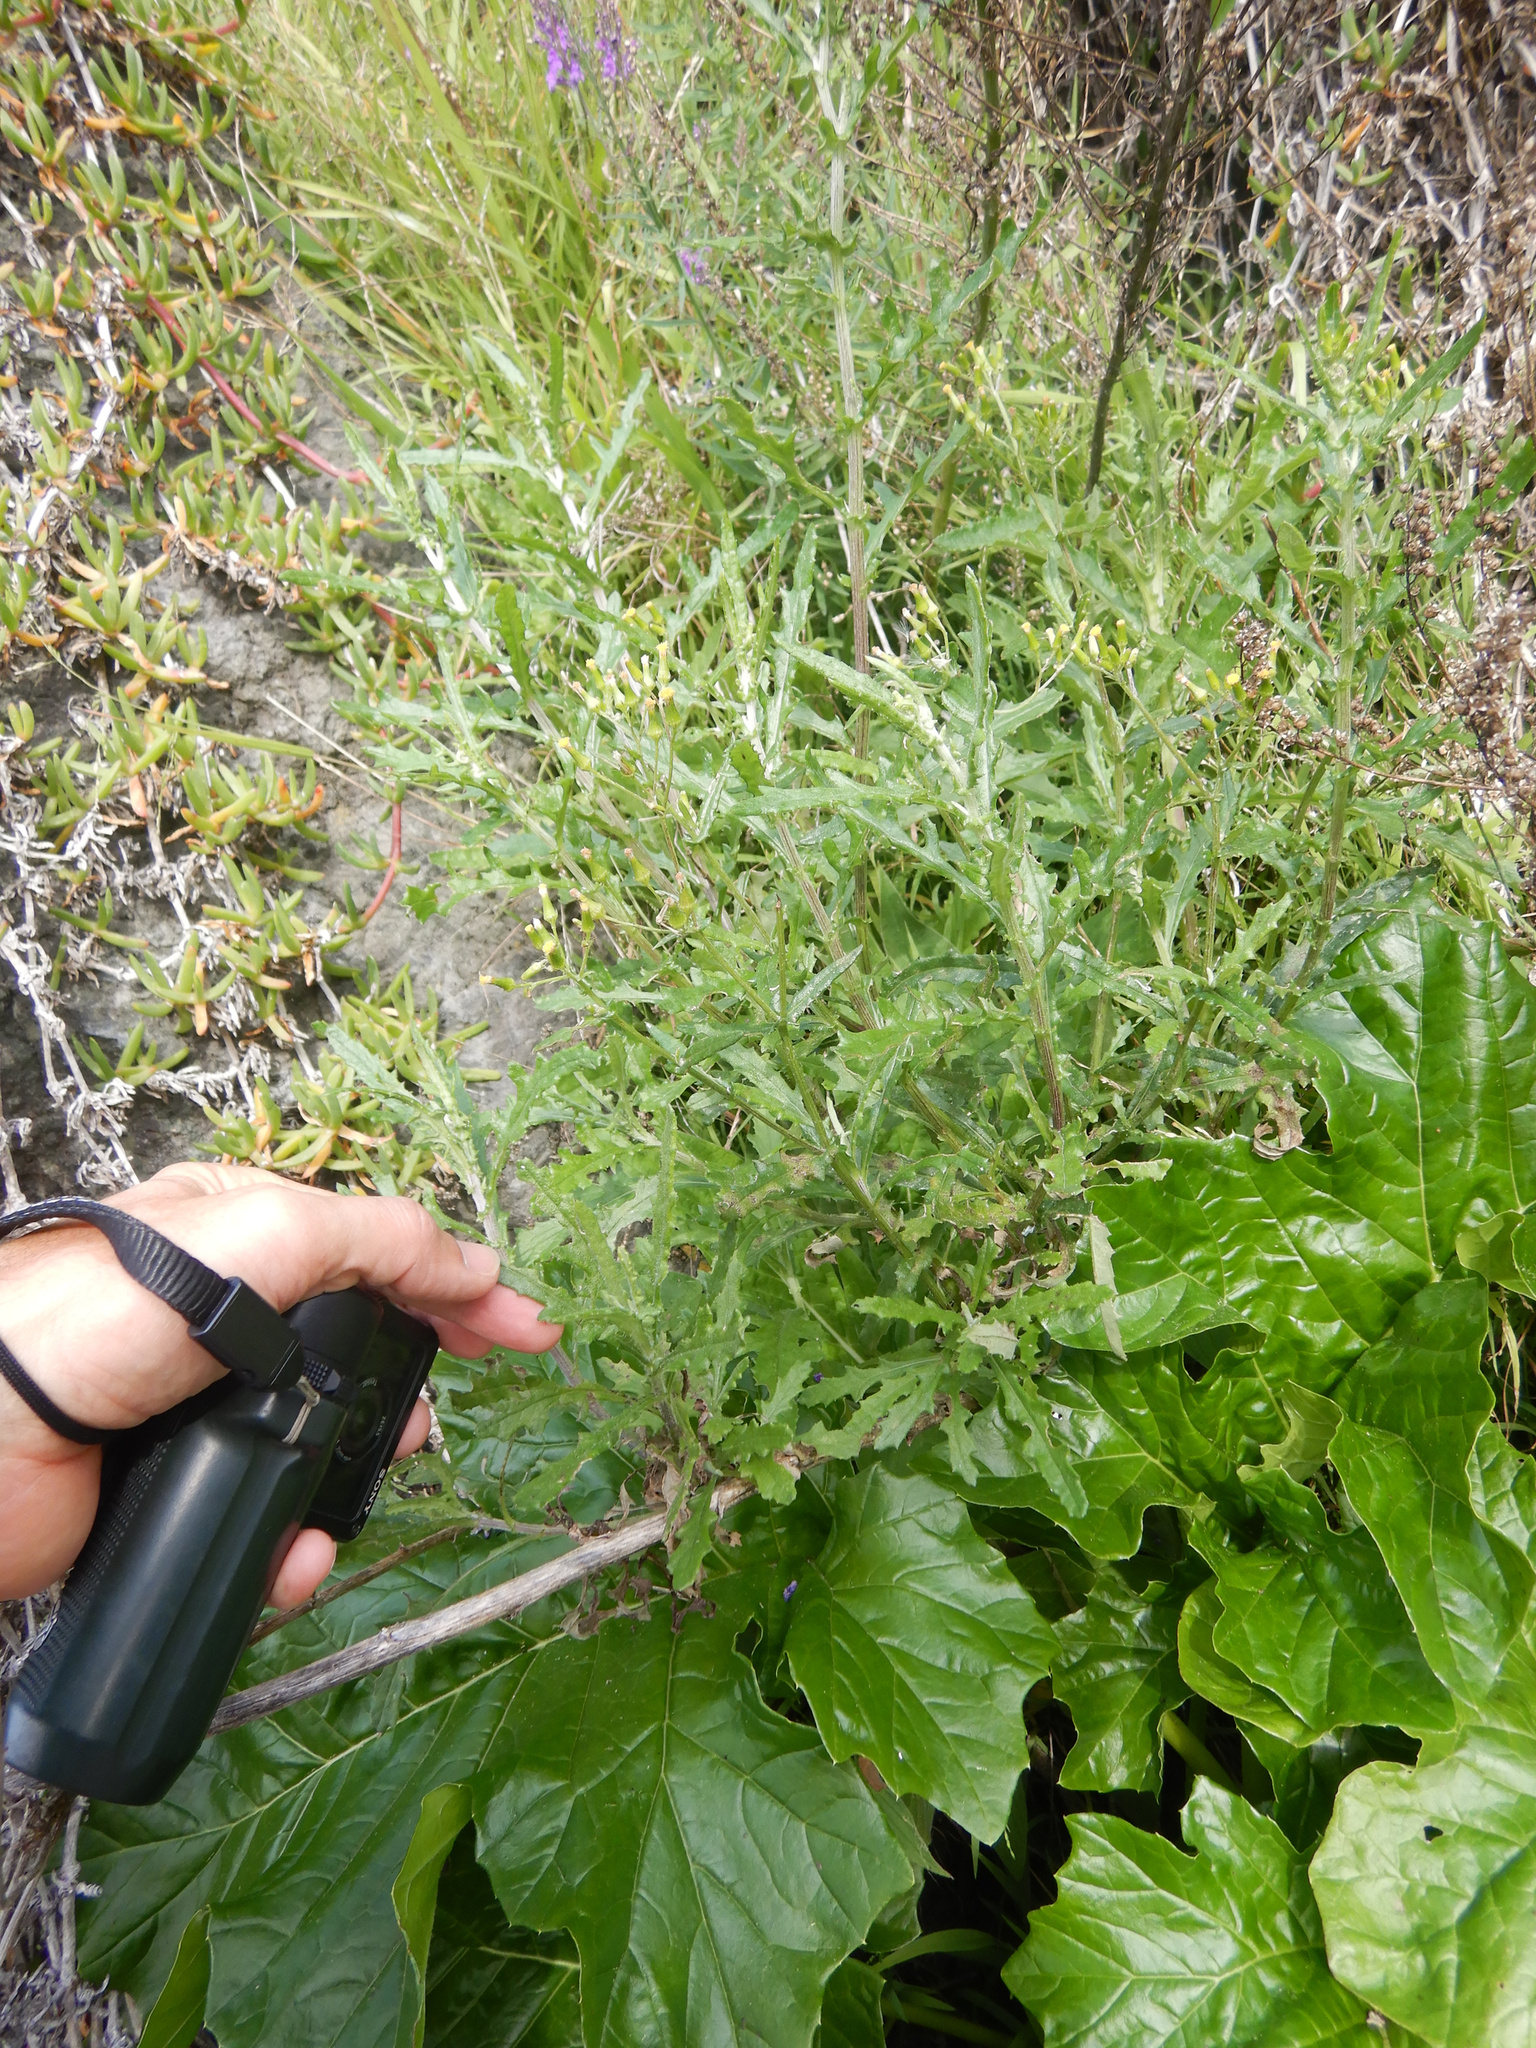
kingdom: Plantae
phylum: Tracheophyta
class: Magnoliopsida
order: Asterales
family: Asteraceae
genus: Senecio
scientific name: Senecio glomeratus
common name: Cutleaf burnweed
